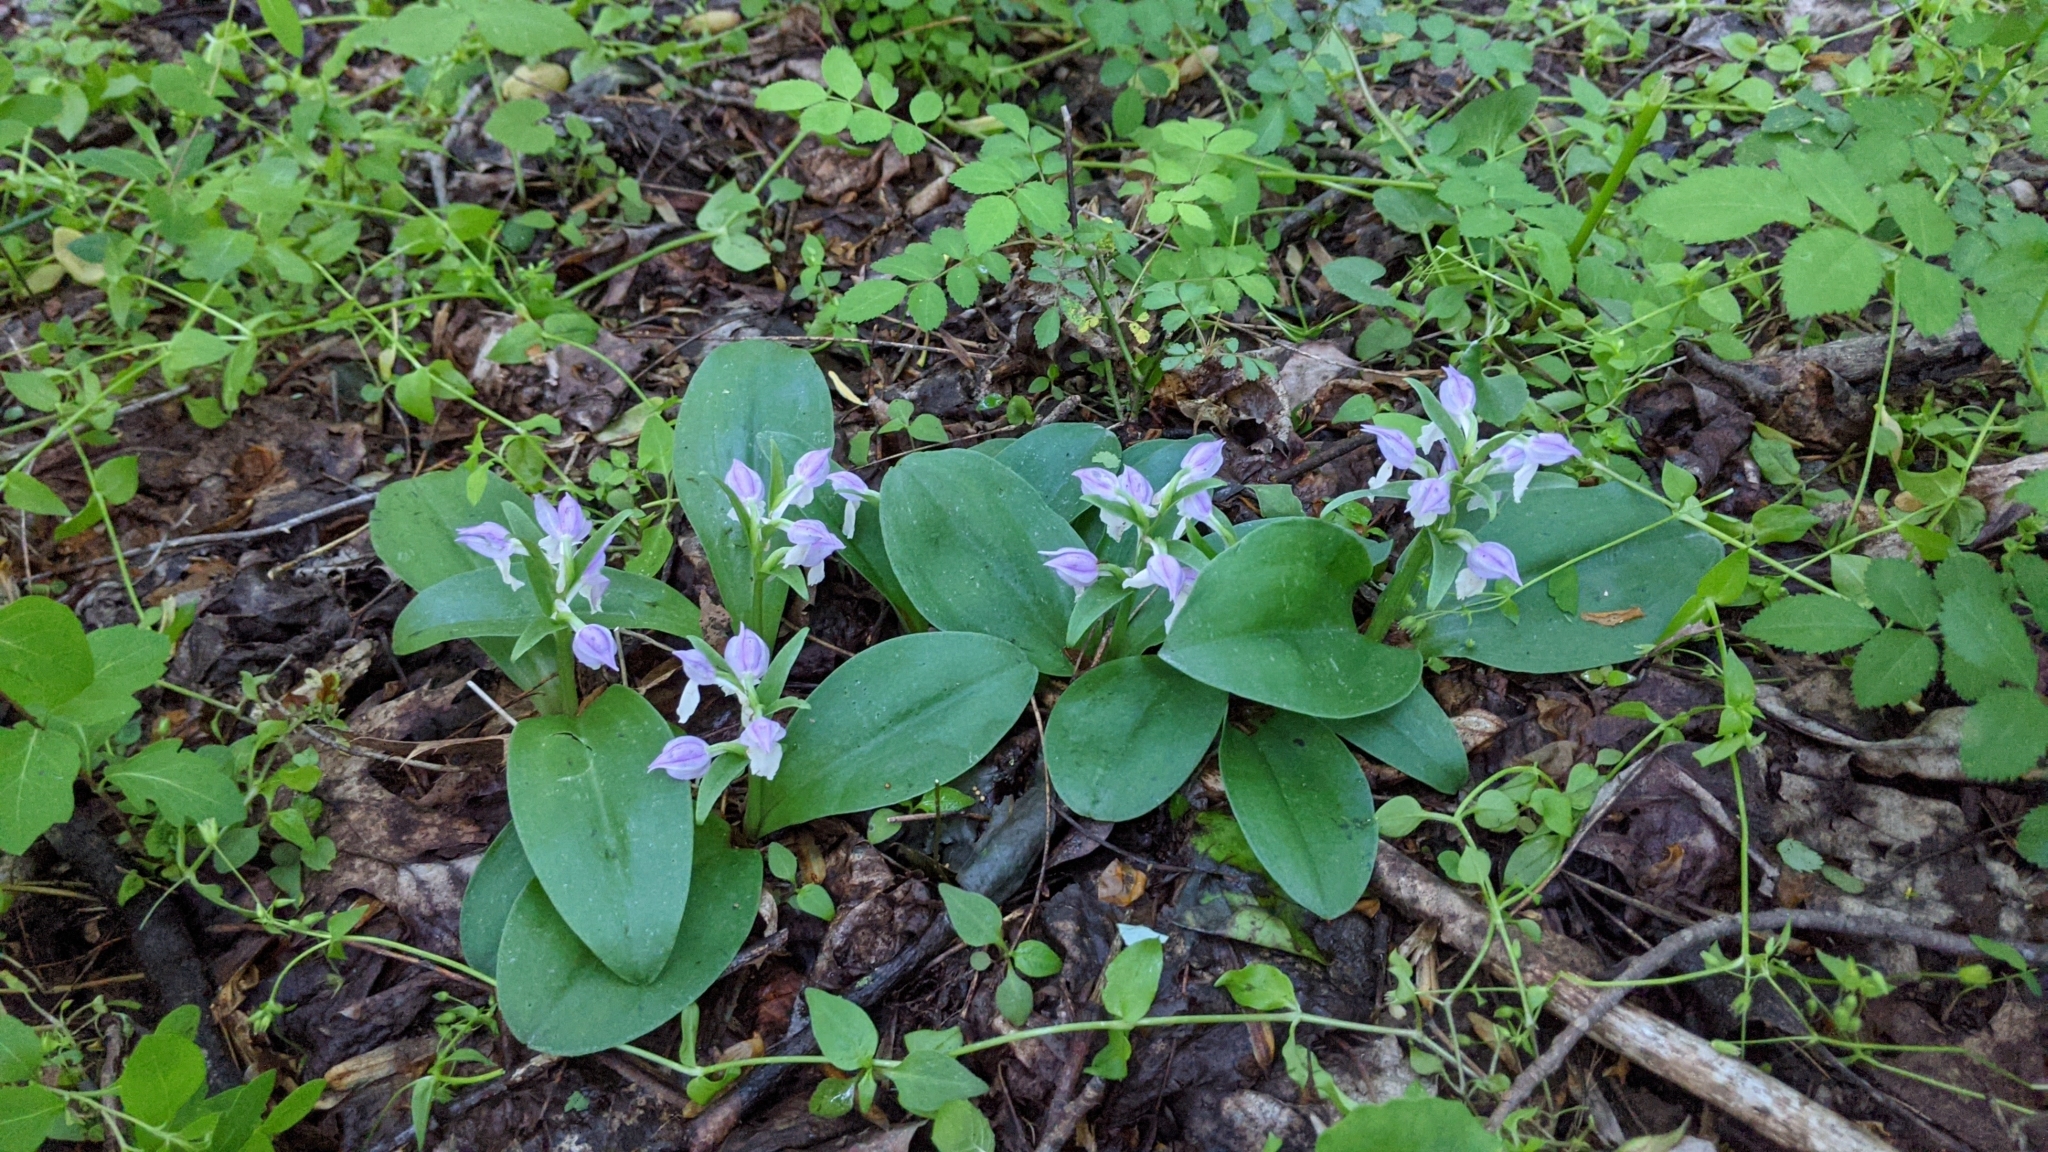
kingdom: Plantae
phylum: Tracheophyta
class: Liliopsida
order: Asparagales
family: Orchidaceae
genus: Galearis
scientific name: Galearis spectabilis
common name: Purple-hooded orchis
